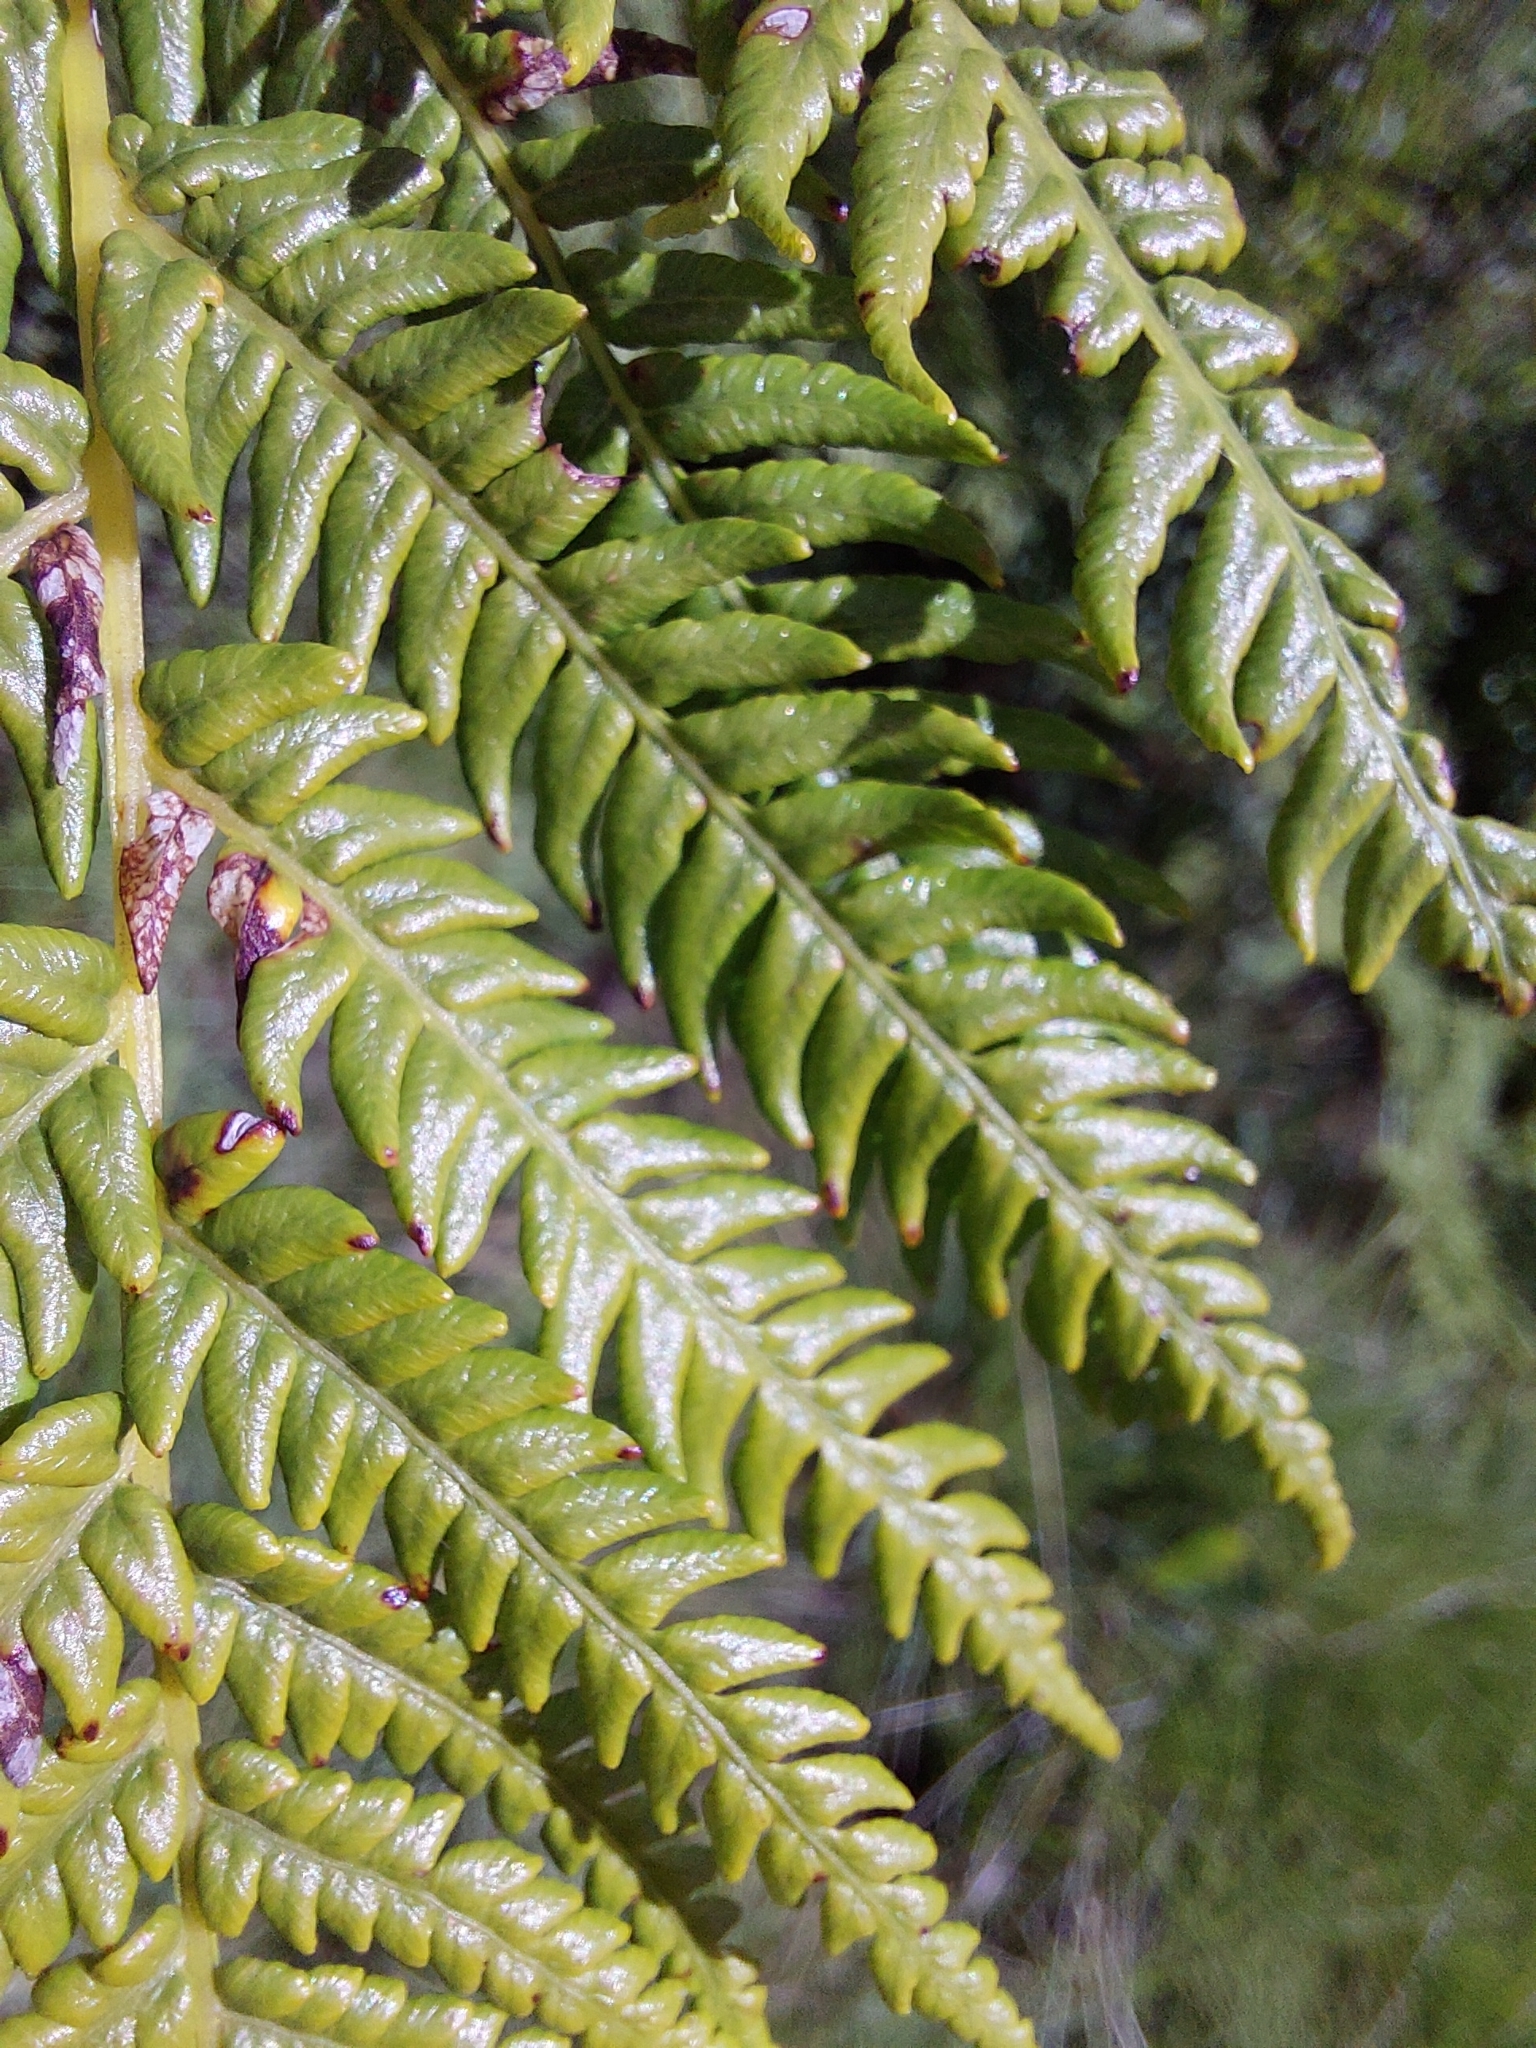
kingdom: Plantae
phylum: Tracheophyta
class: Polypodiopsida
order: Cyatheales
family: Cyatheaceae
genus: Alsophila
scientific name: Alsophila dregei
